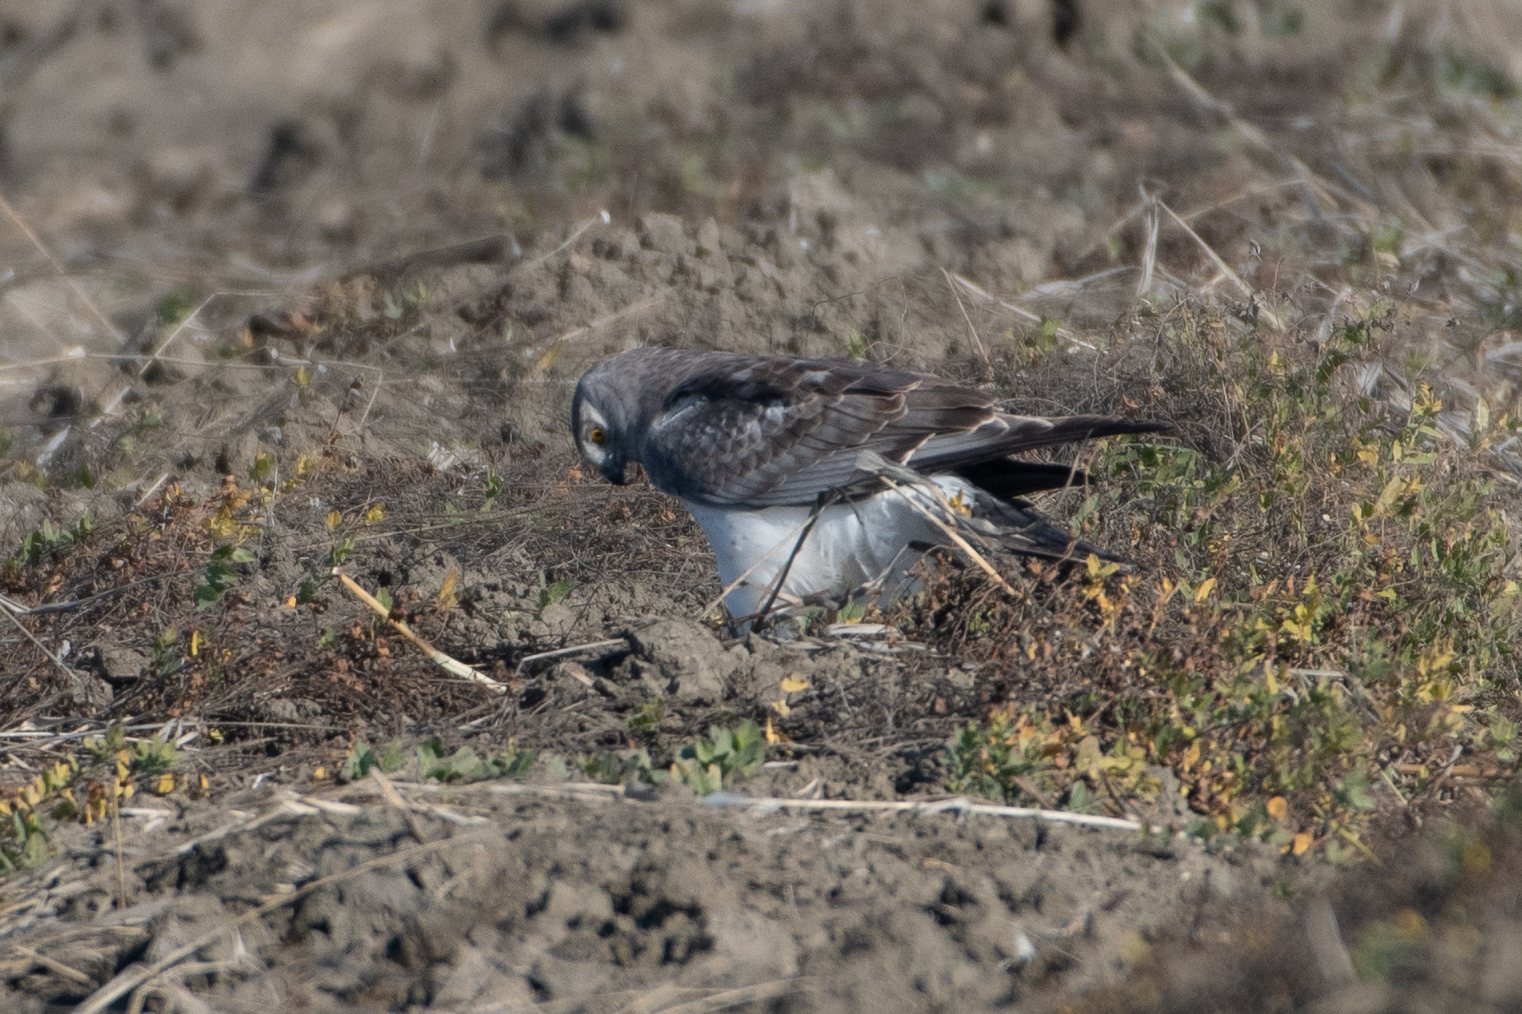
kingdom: Animalia
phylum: Chordata
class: Aves
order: Accipitriformes
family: Accipitridae
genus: Circus
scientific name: Circus cyaneus
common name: Hen harrier
